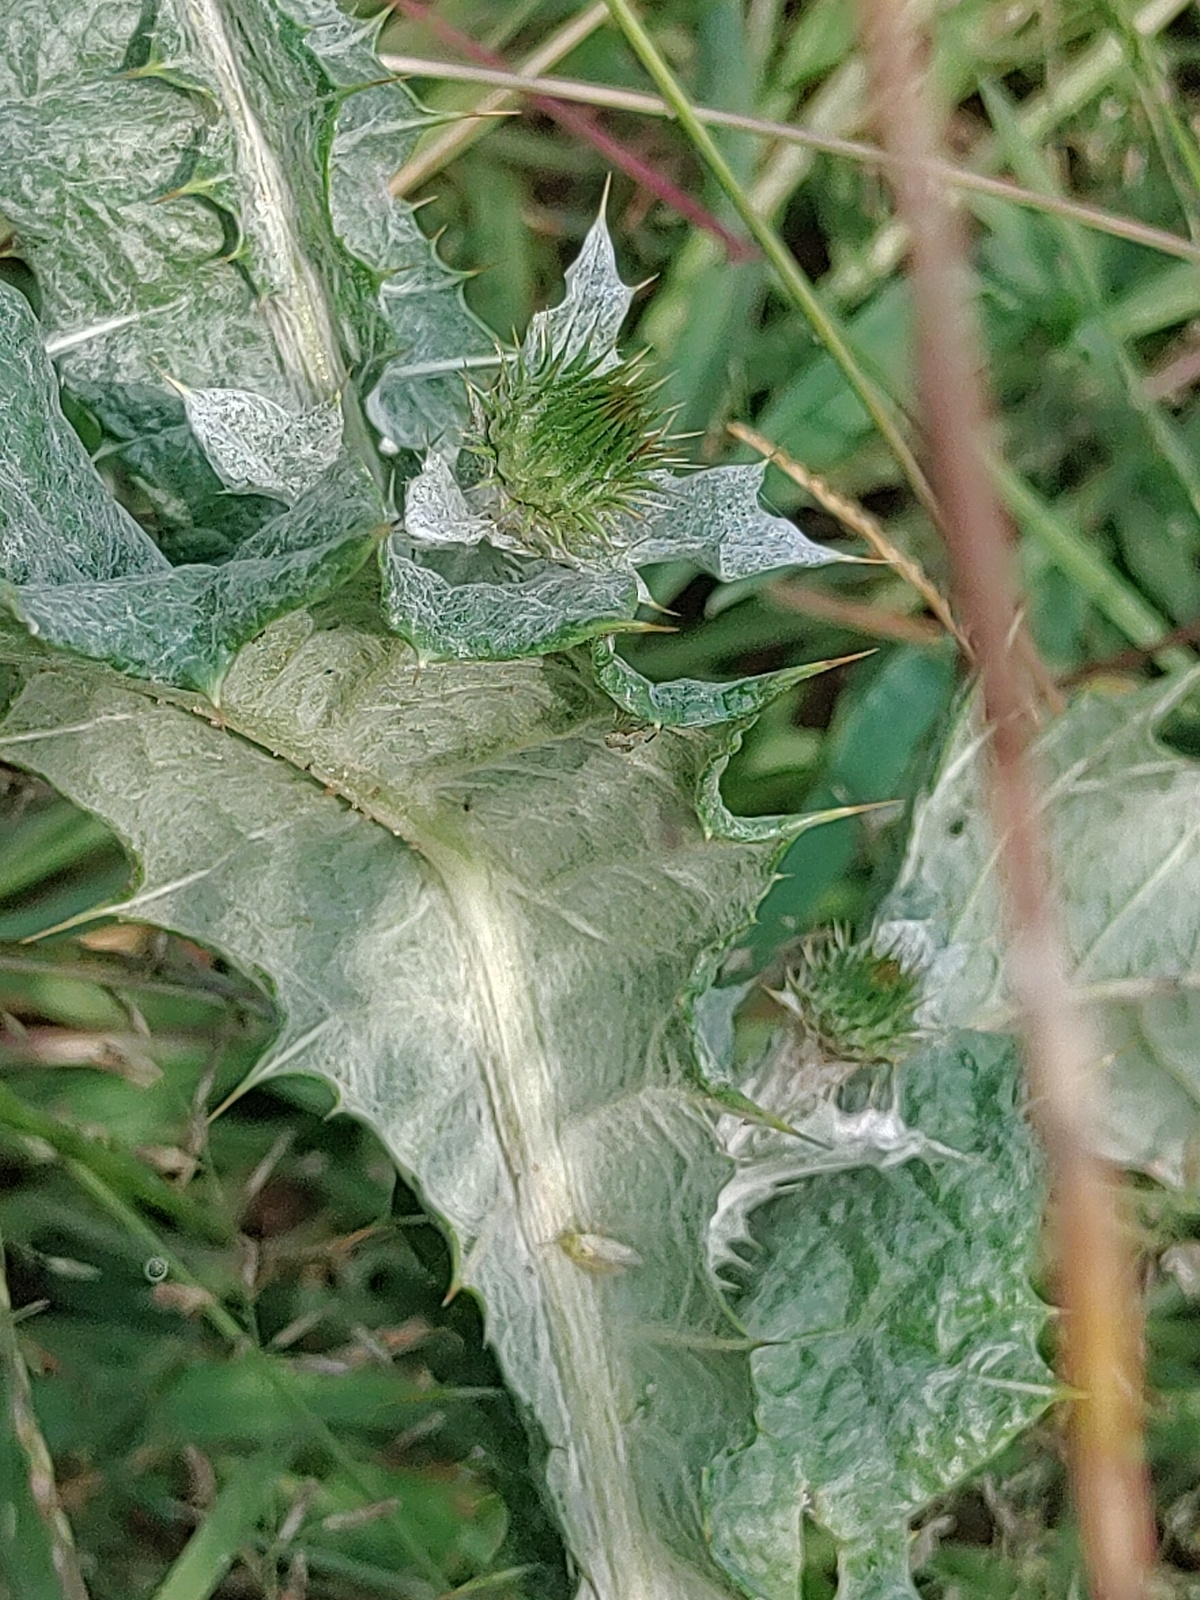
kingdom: Plantae
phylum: Tracheophyta
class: Magnoliopsida
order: Asterales
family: Asteraceae
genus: Onopordum
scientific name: Onopordum acanthium
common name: Scotch thistle
